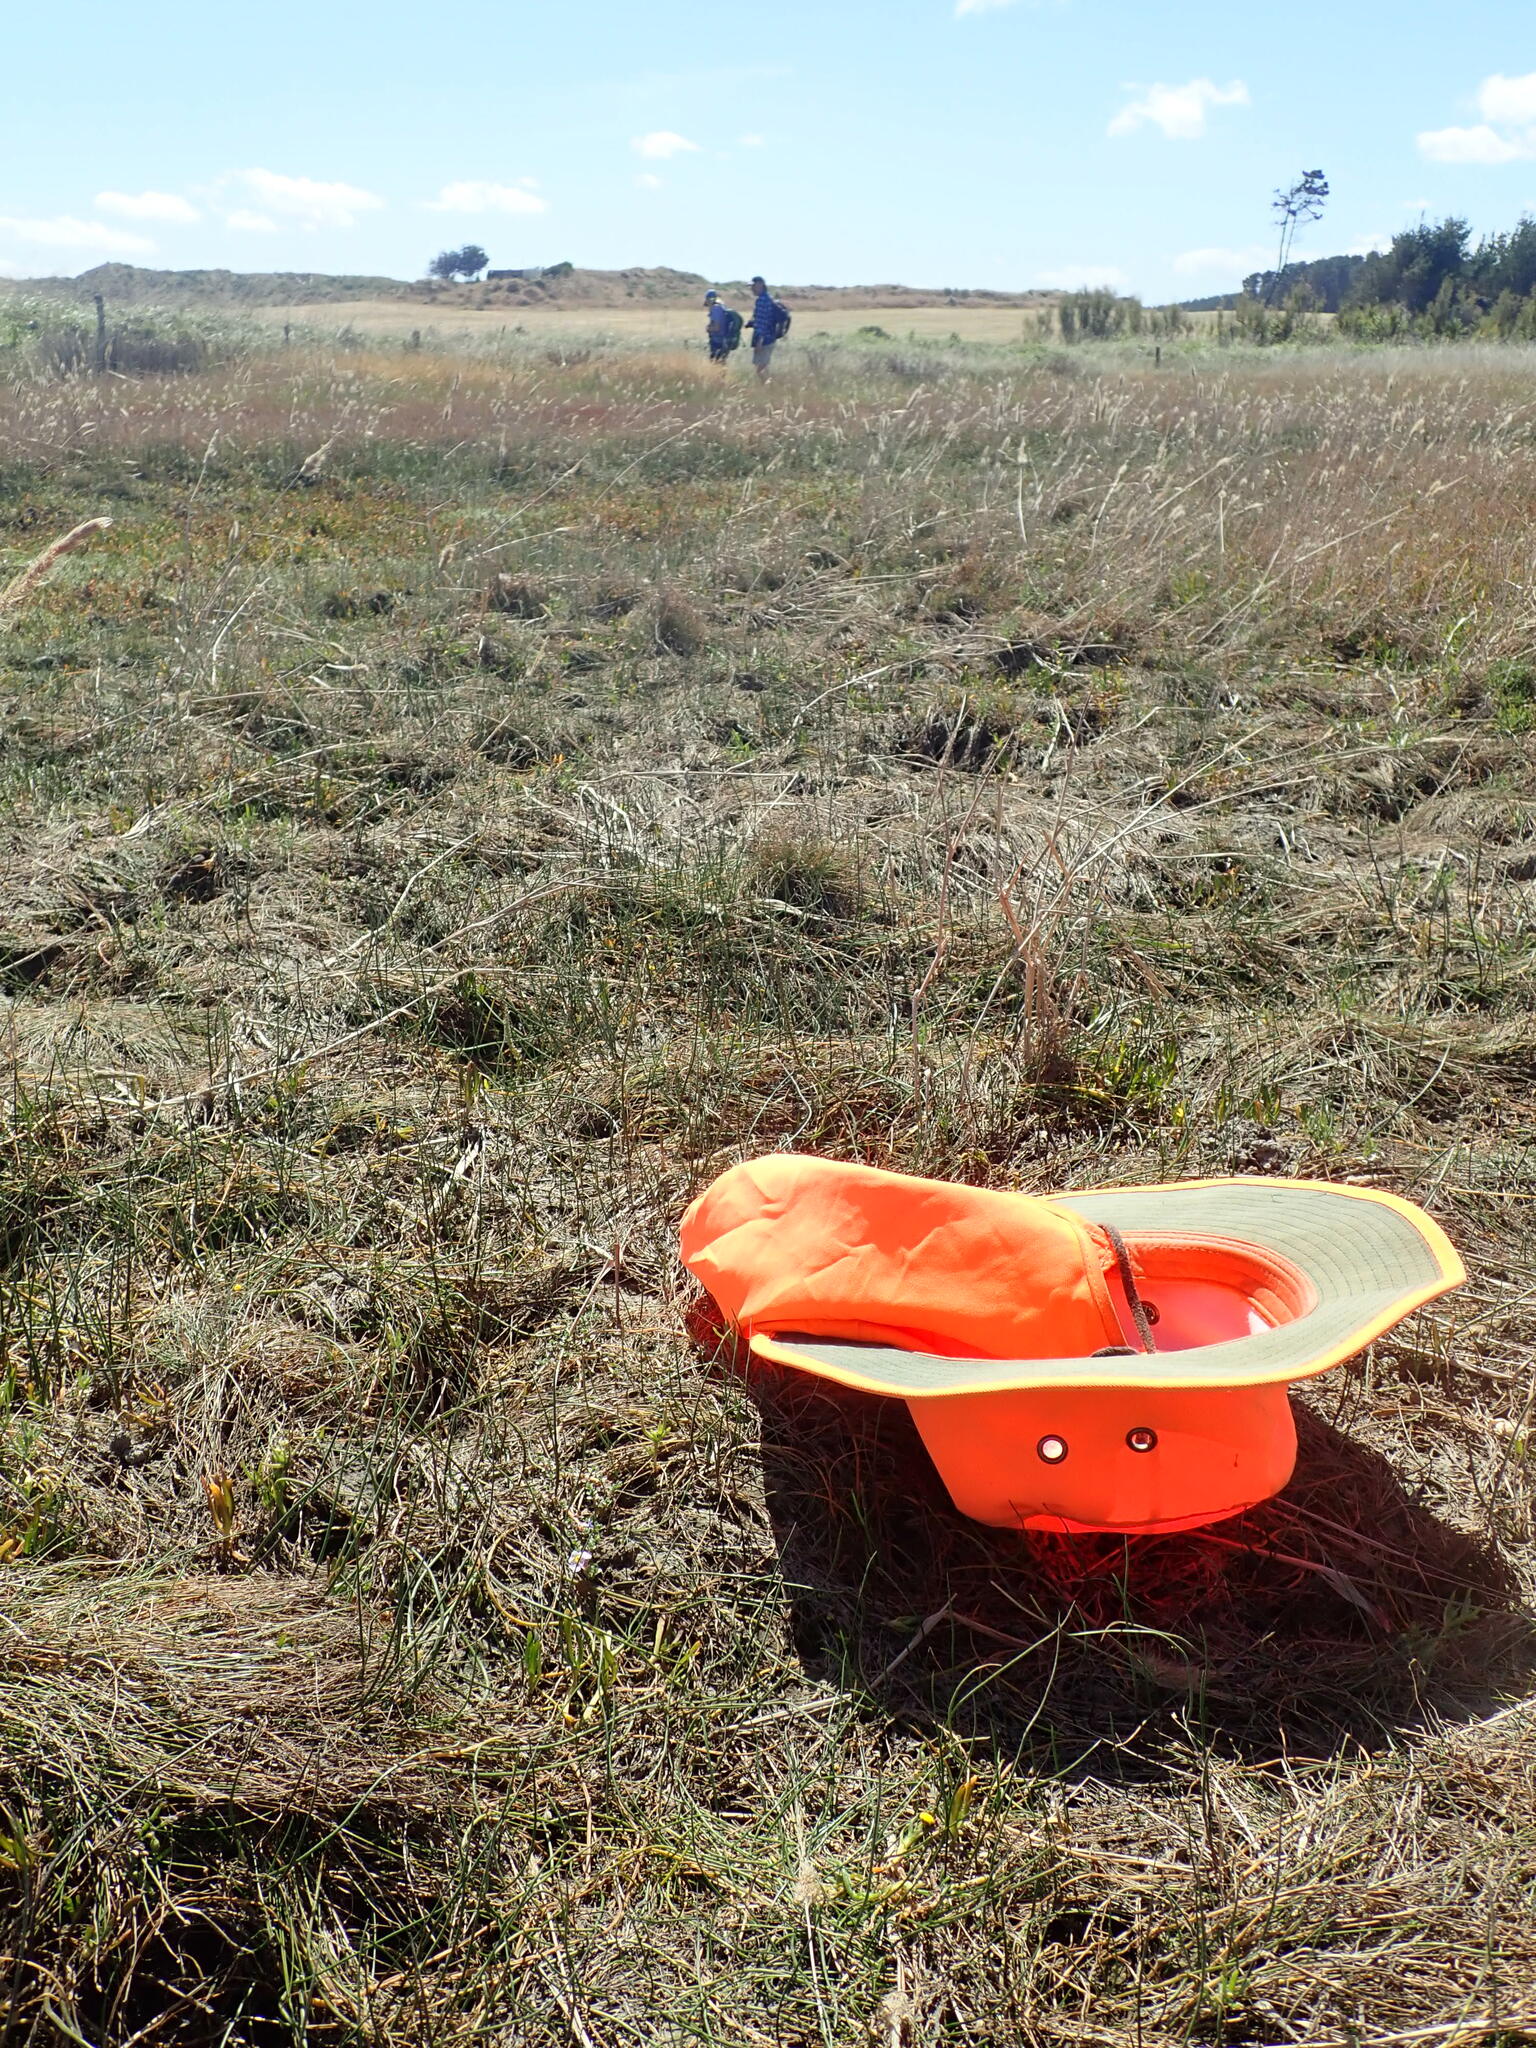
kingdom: Plantae
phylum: Tracheophyta
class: Magnoliopsida
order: Lamiales
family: Phrymaceae
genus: Thyridia
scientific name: Thyridia repens
